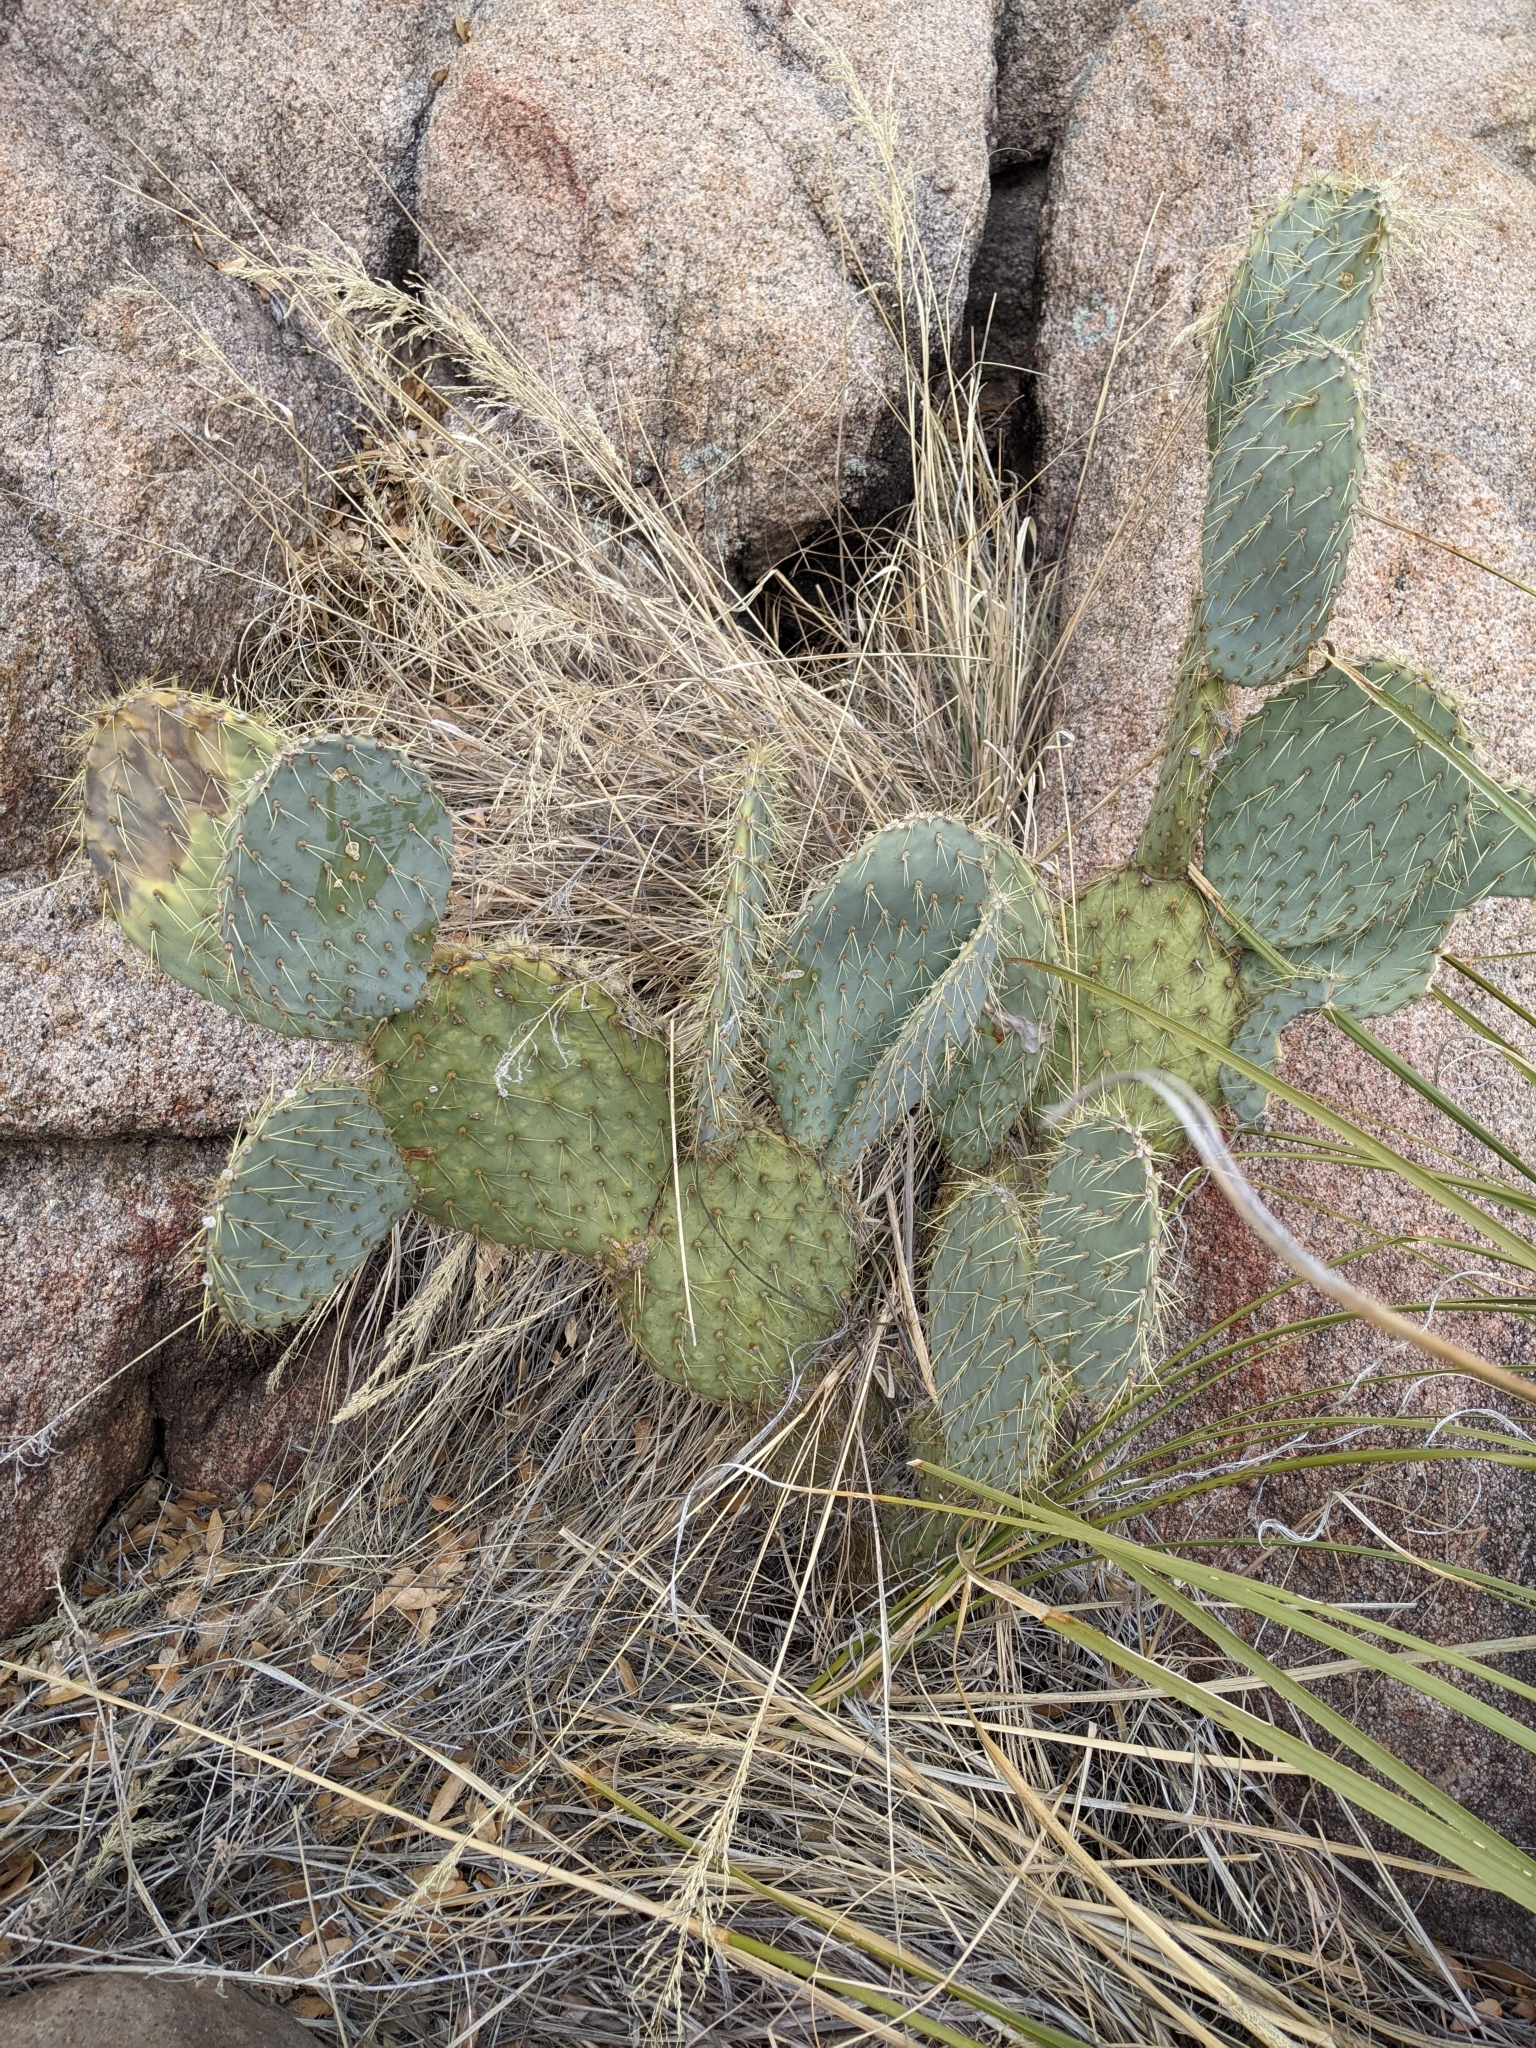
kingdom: Plantae
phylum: Tracheophyta
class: Magnoliopsida
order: Caryophyllales
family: Cactaceae
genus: Opuntia
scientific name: Opuntia chlorotica
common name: Dollar-joint prickly-pear
